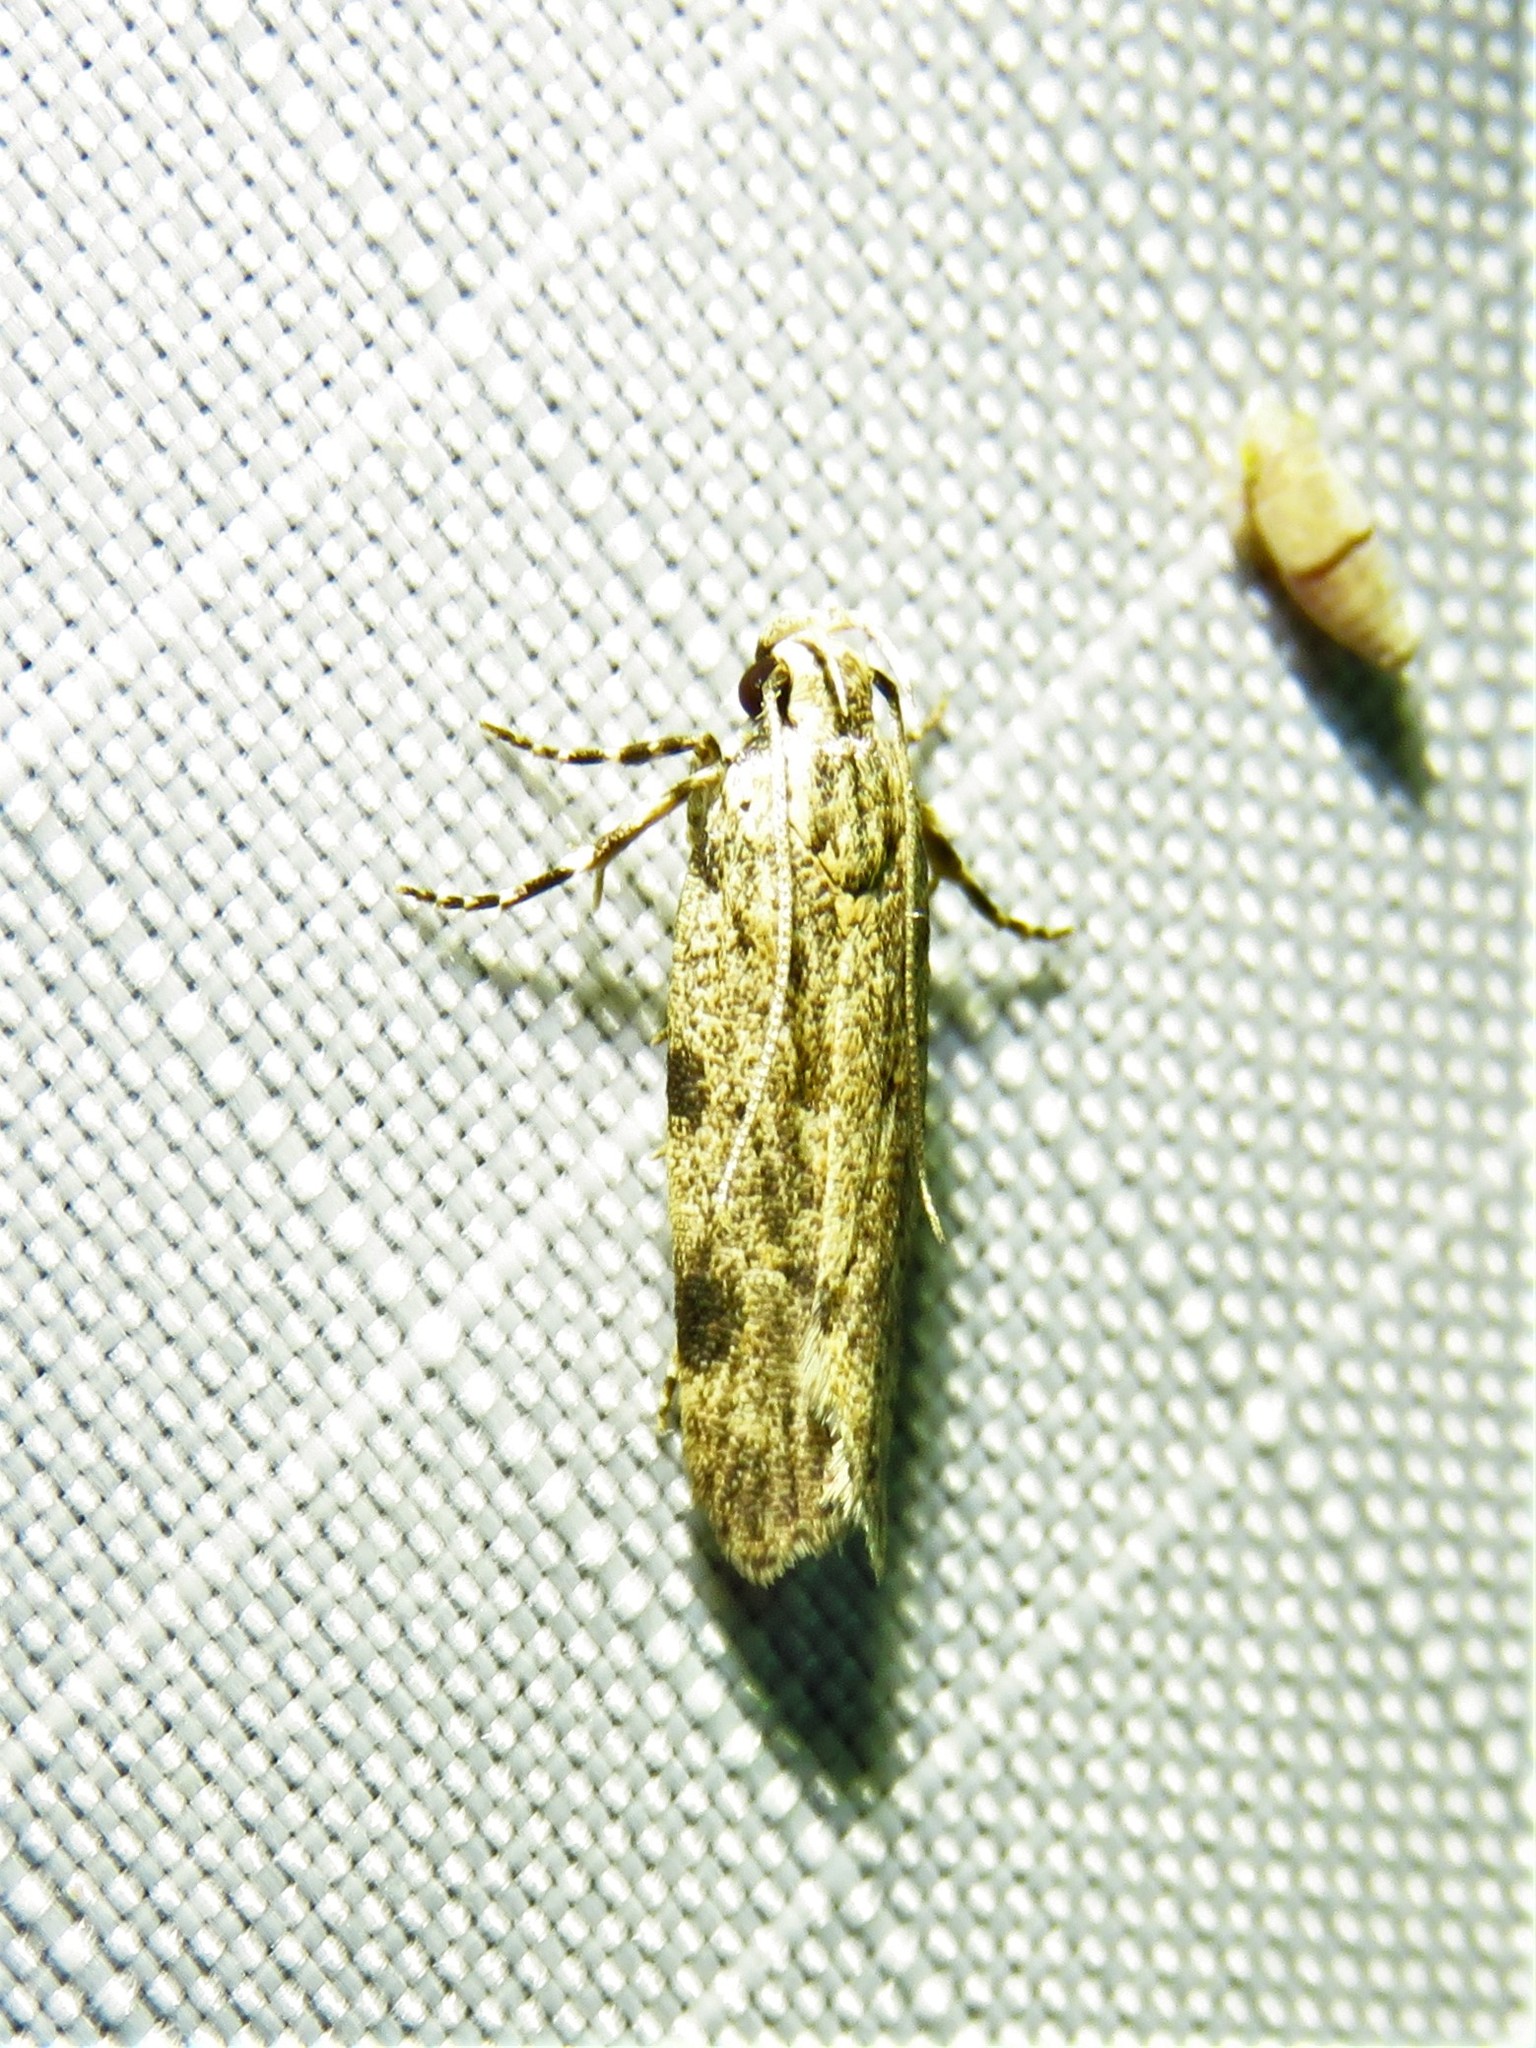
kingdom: Animalia
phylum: Arthropoda
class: Insecta
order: Lepidoptera
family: Gelechiidae
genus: Friseria
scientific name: Friseria cockerelli
